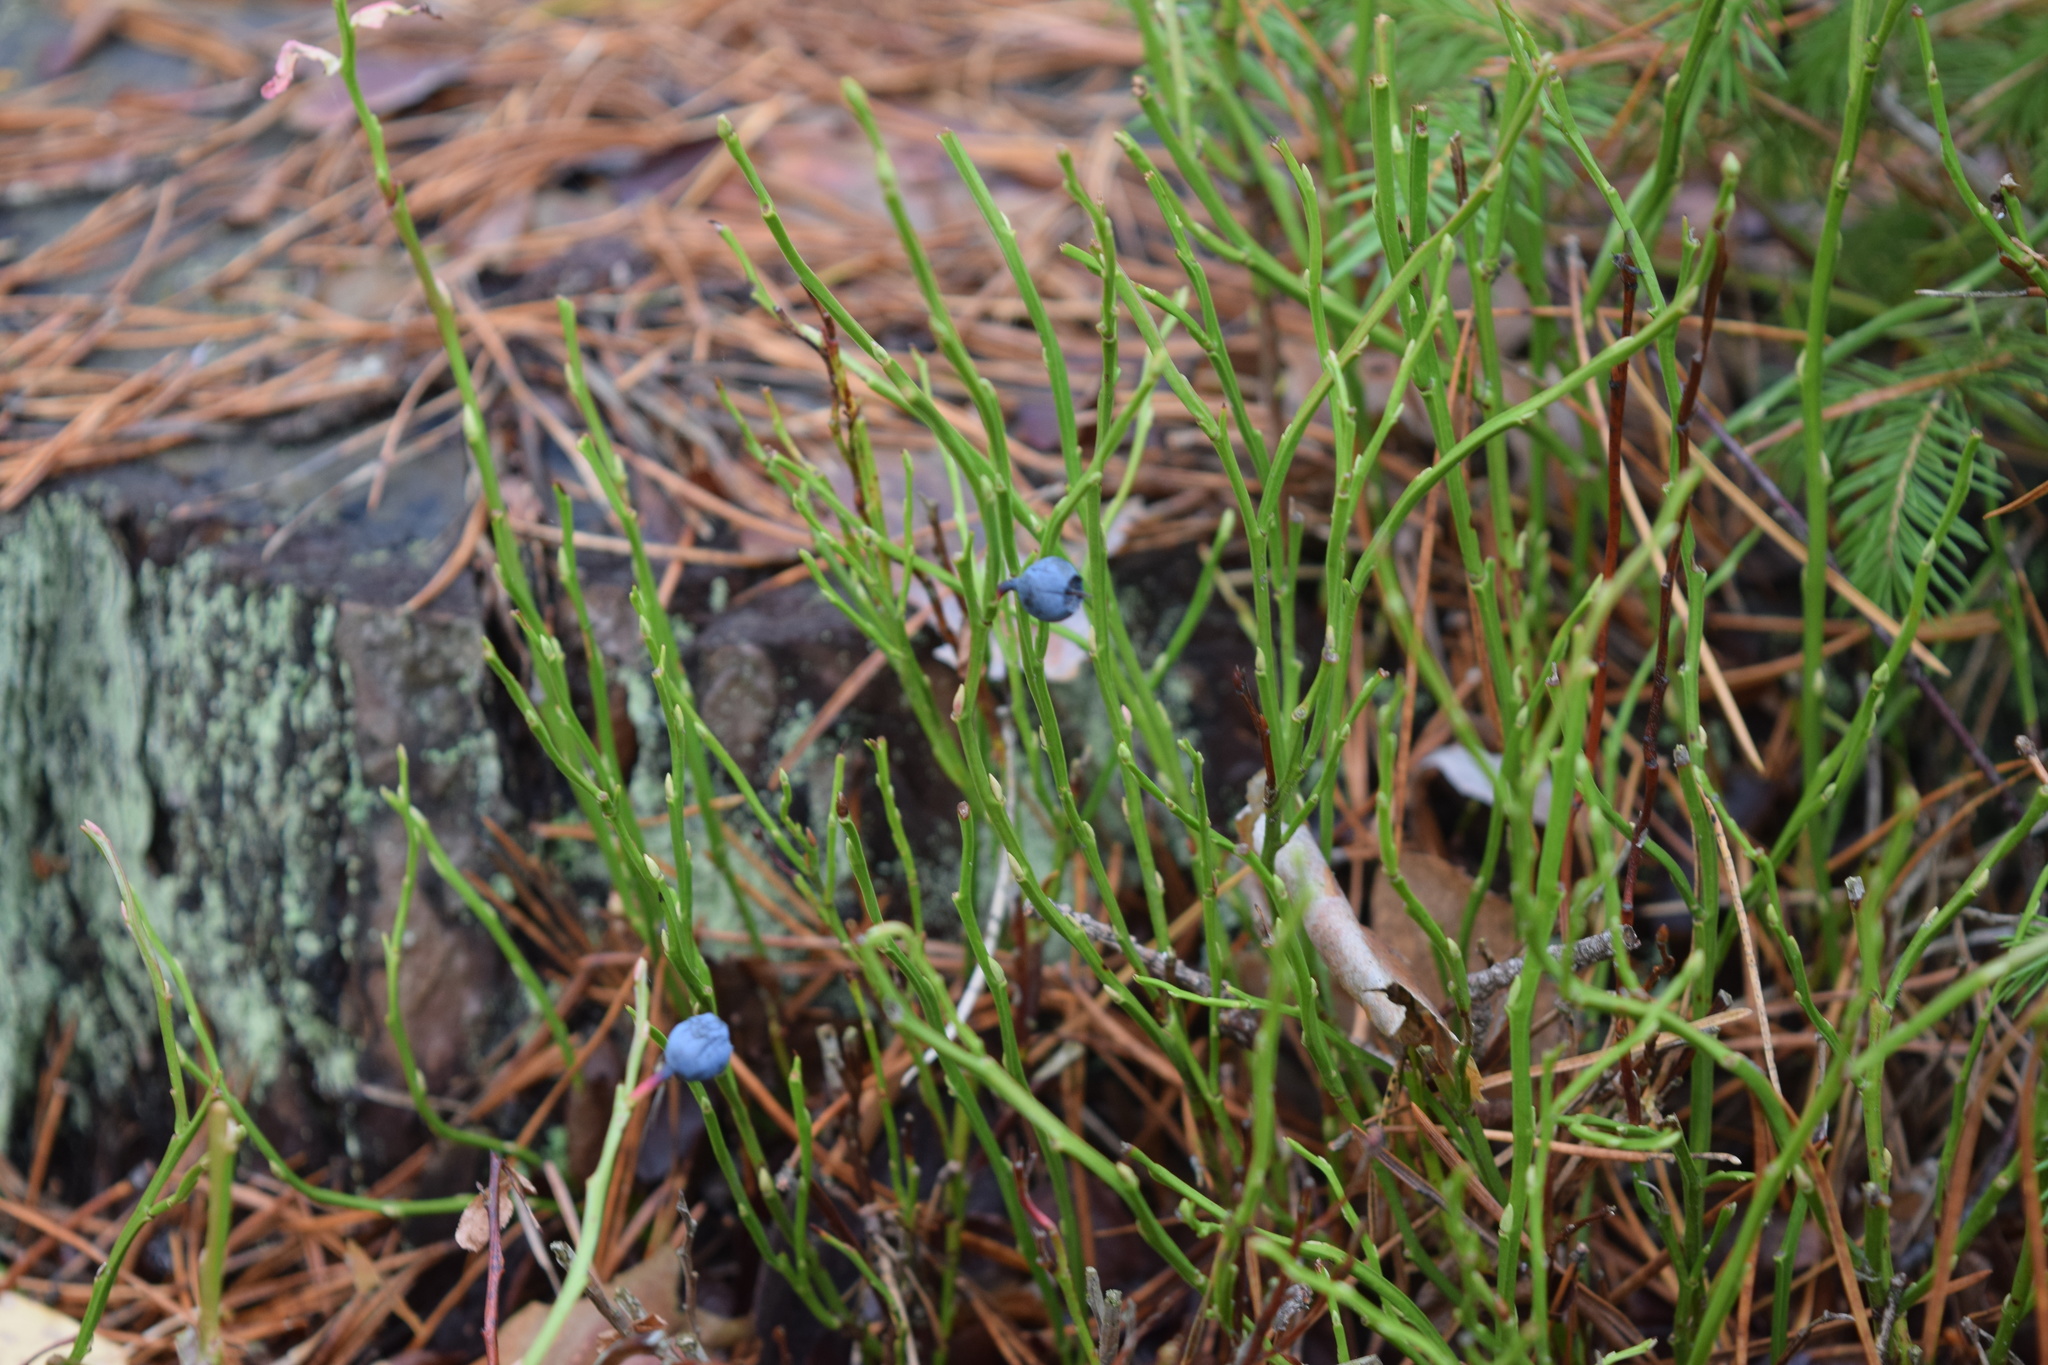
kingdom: Plantae
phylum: Tracheophyta
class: Magnoliopsida
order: Ericales
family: Ericaceae
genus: Vaccinium
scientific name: Vaccinium myrtillus
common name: Bilberry
